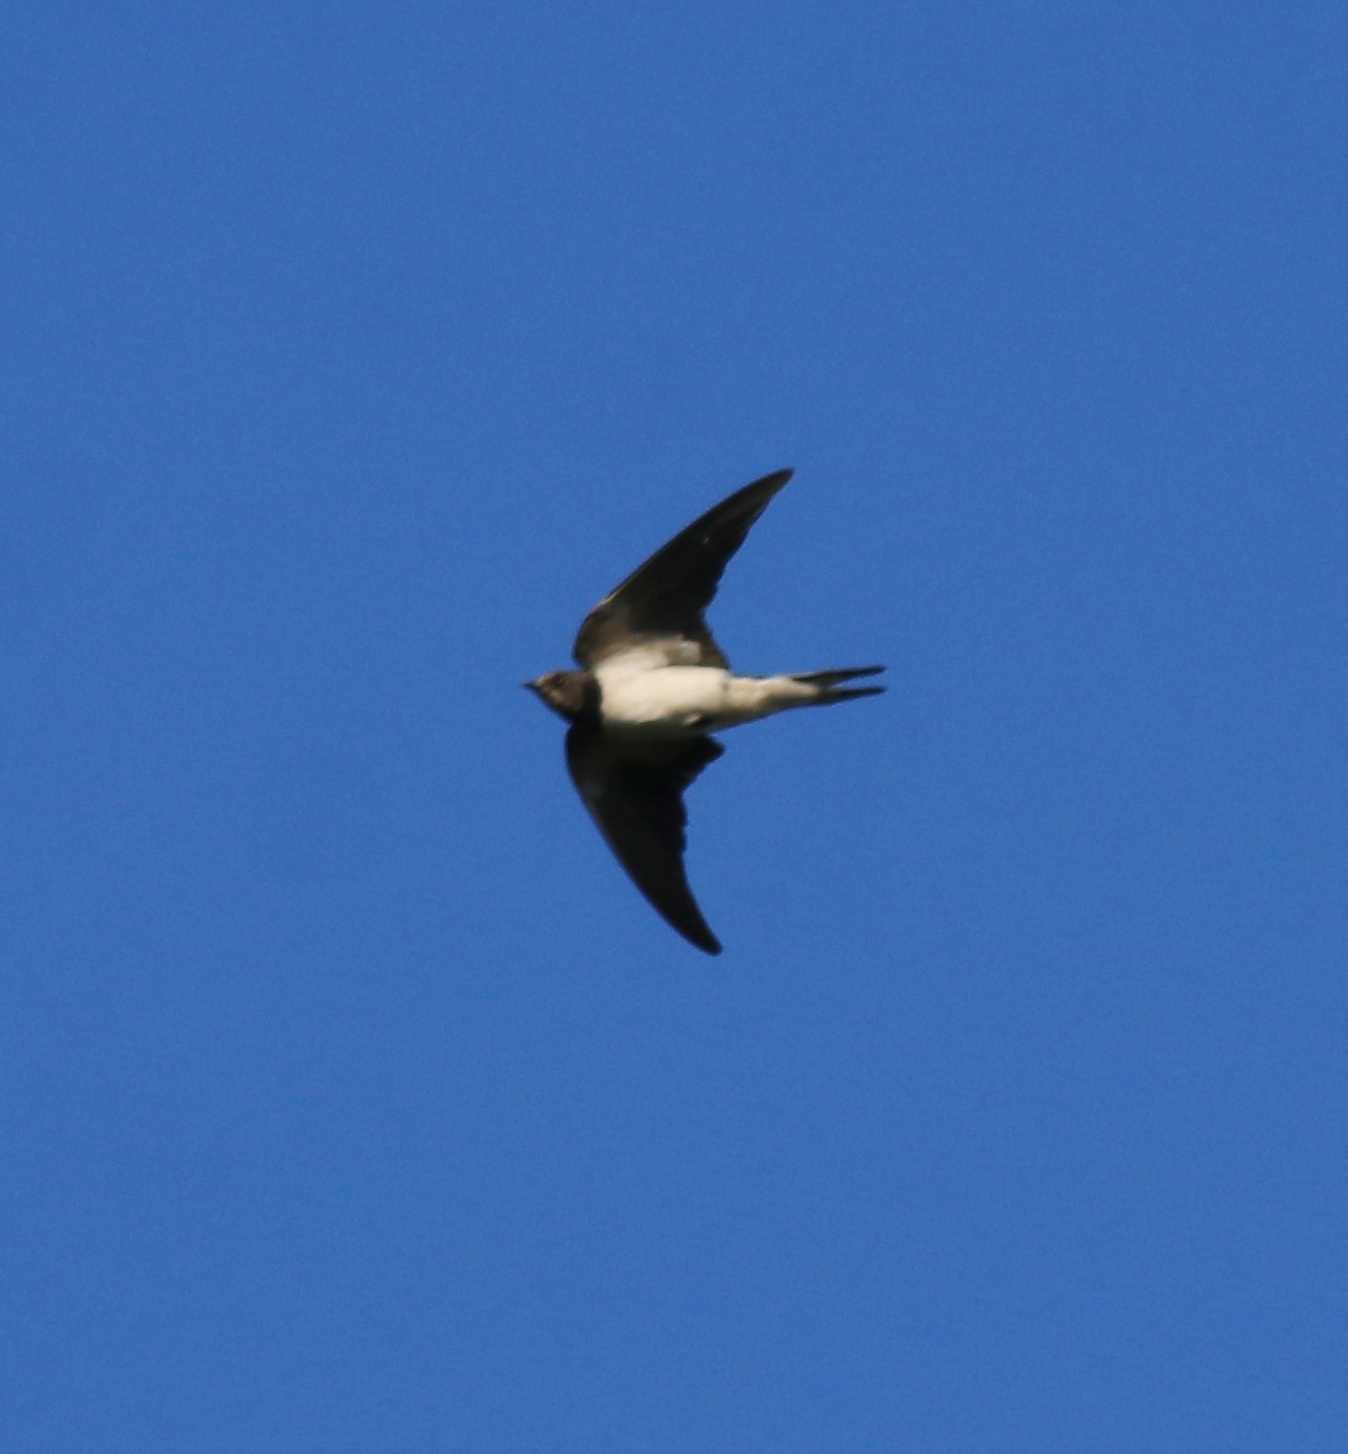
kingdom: Animalia
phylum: Chordata
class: Aves
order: Passeriformes
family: Hirundinidae
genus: Hirundo
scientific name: Hirundo rustica
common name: Barn swallow
